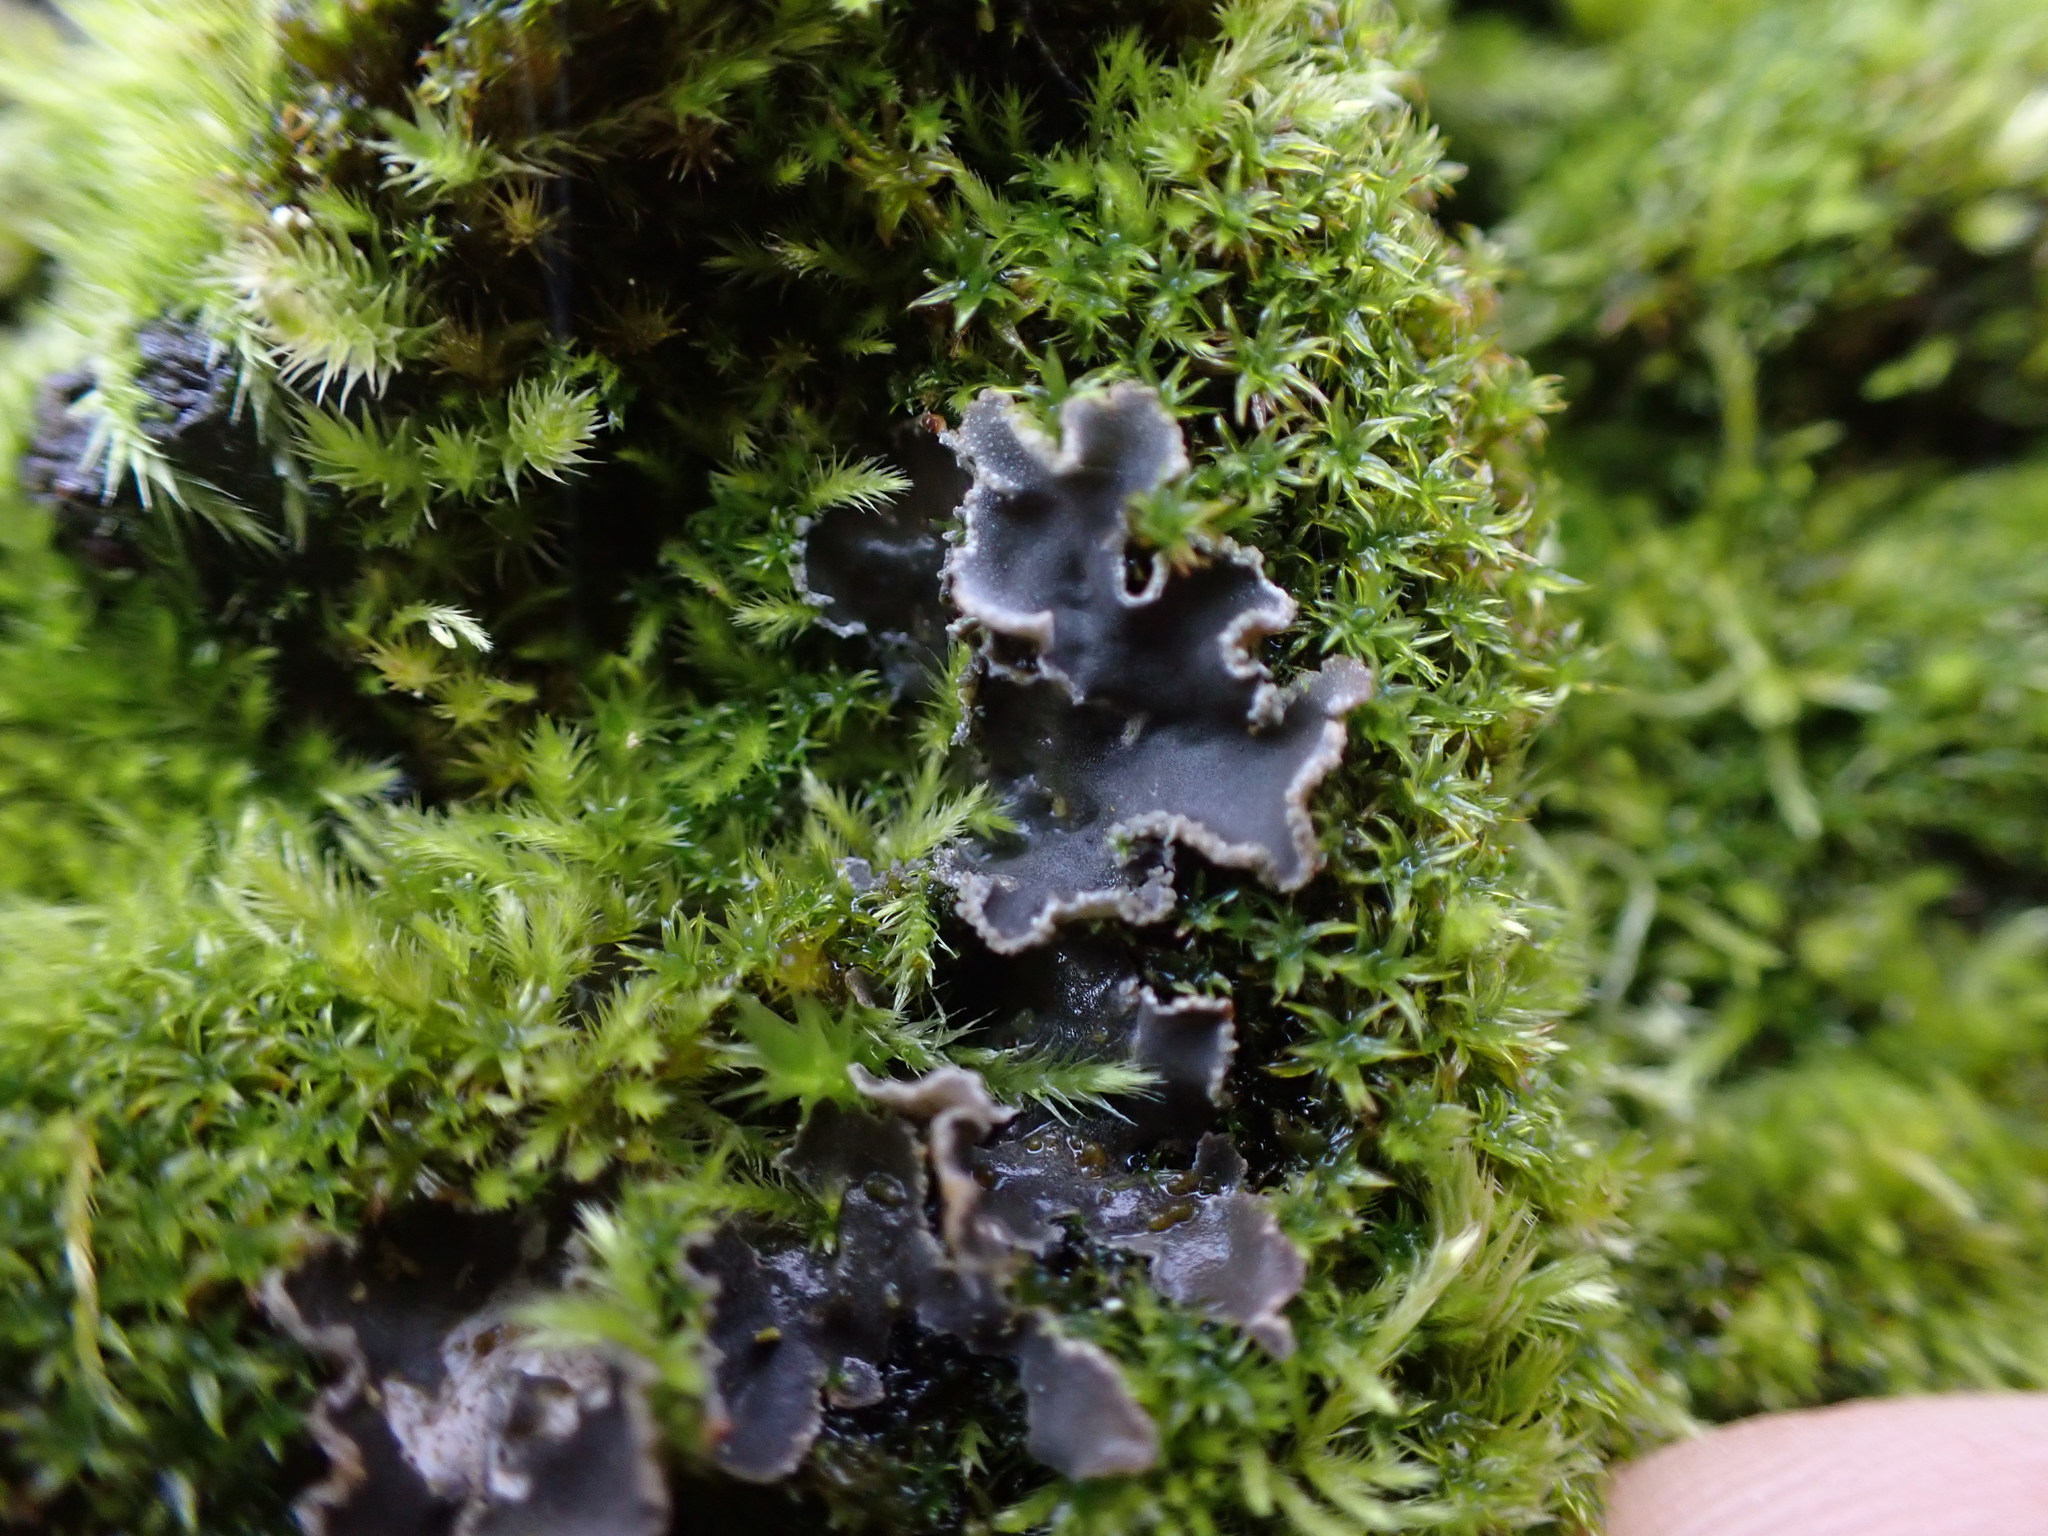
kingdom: Fungi
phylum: Ascomycota
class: Lecanoromycetes
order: Peltigerales
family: Peltigeraceae
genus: Peltigera
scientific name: Peltigera collina
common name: Gritty tree pelt lichen
